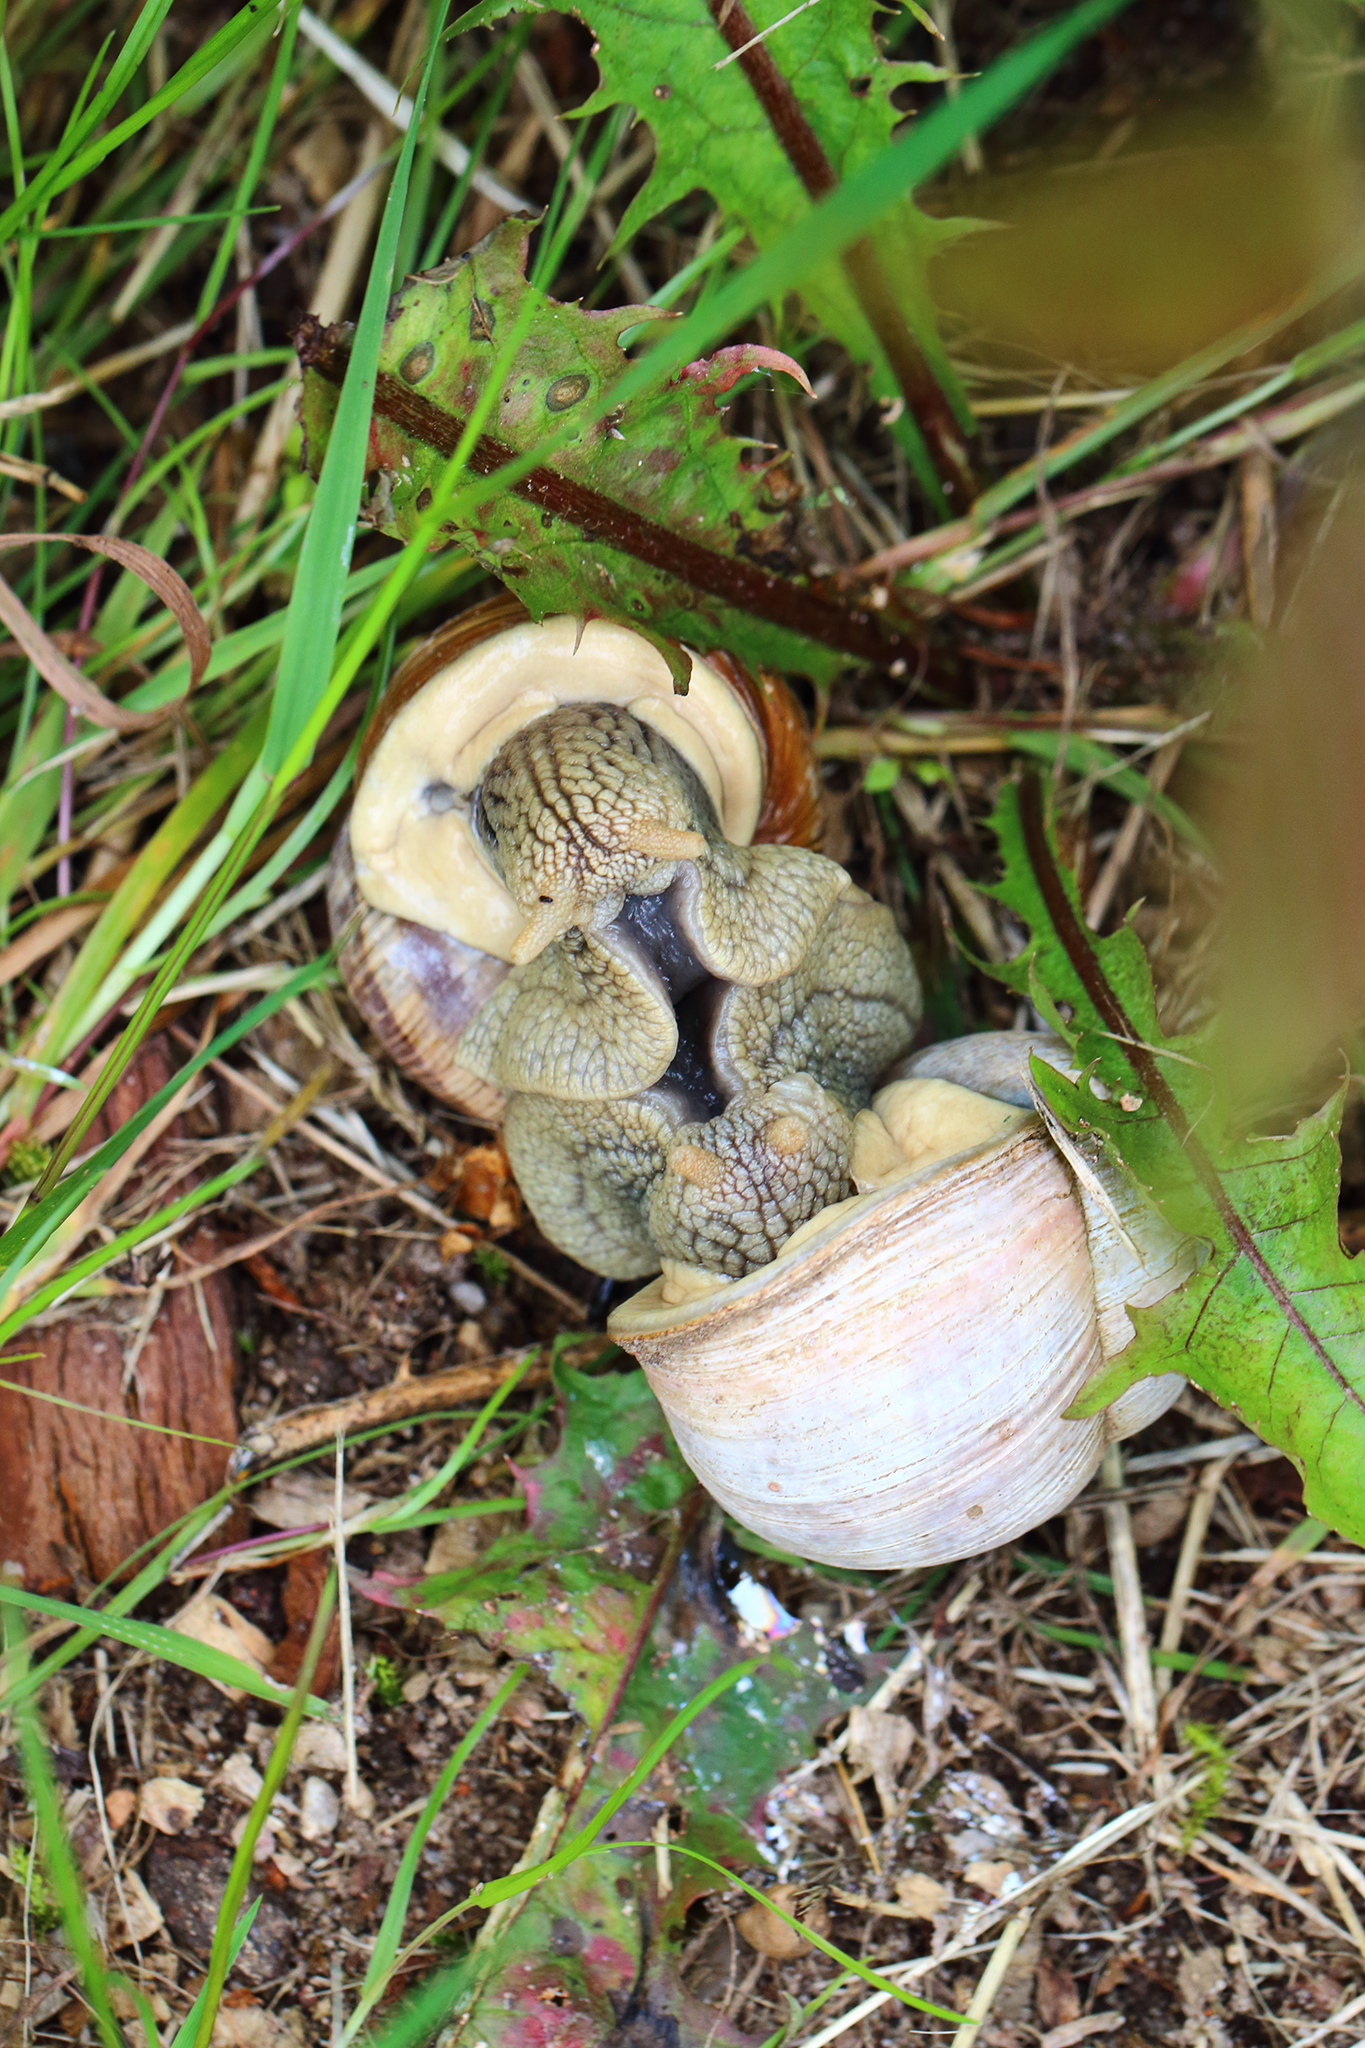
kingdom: Animalia
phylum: Mollusca
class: Gastropoda
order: Stylommatophora
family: Helicidae
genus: Helix
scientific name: Helix pomatia
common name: Roman snail
